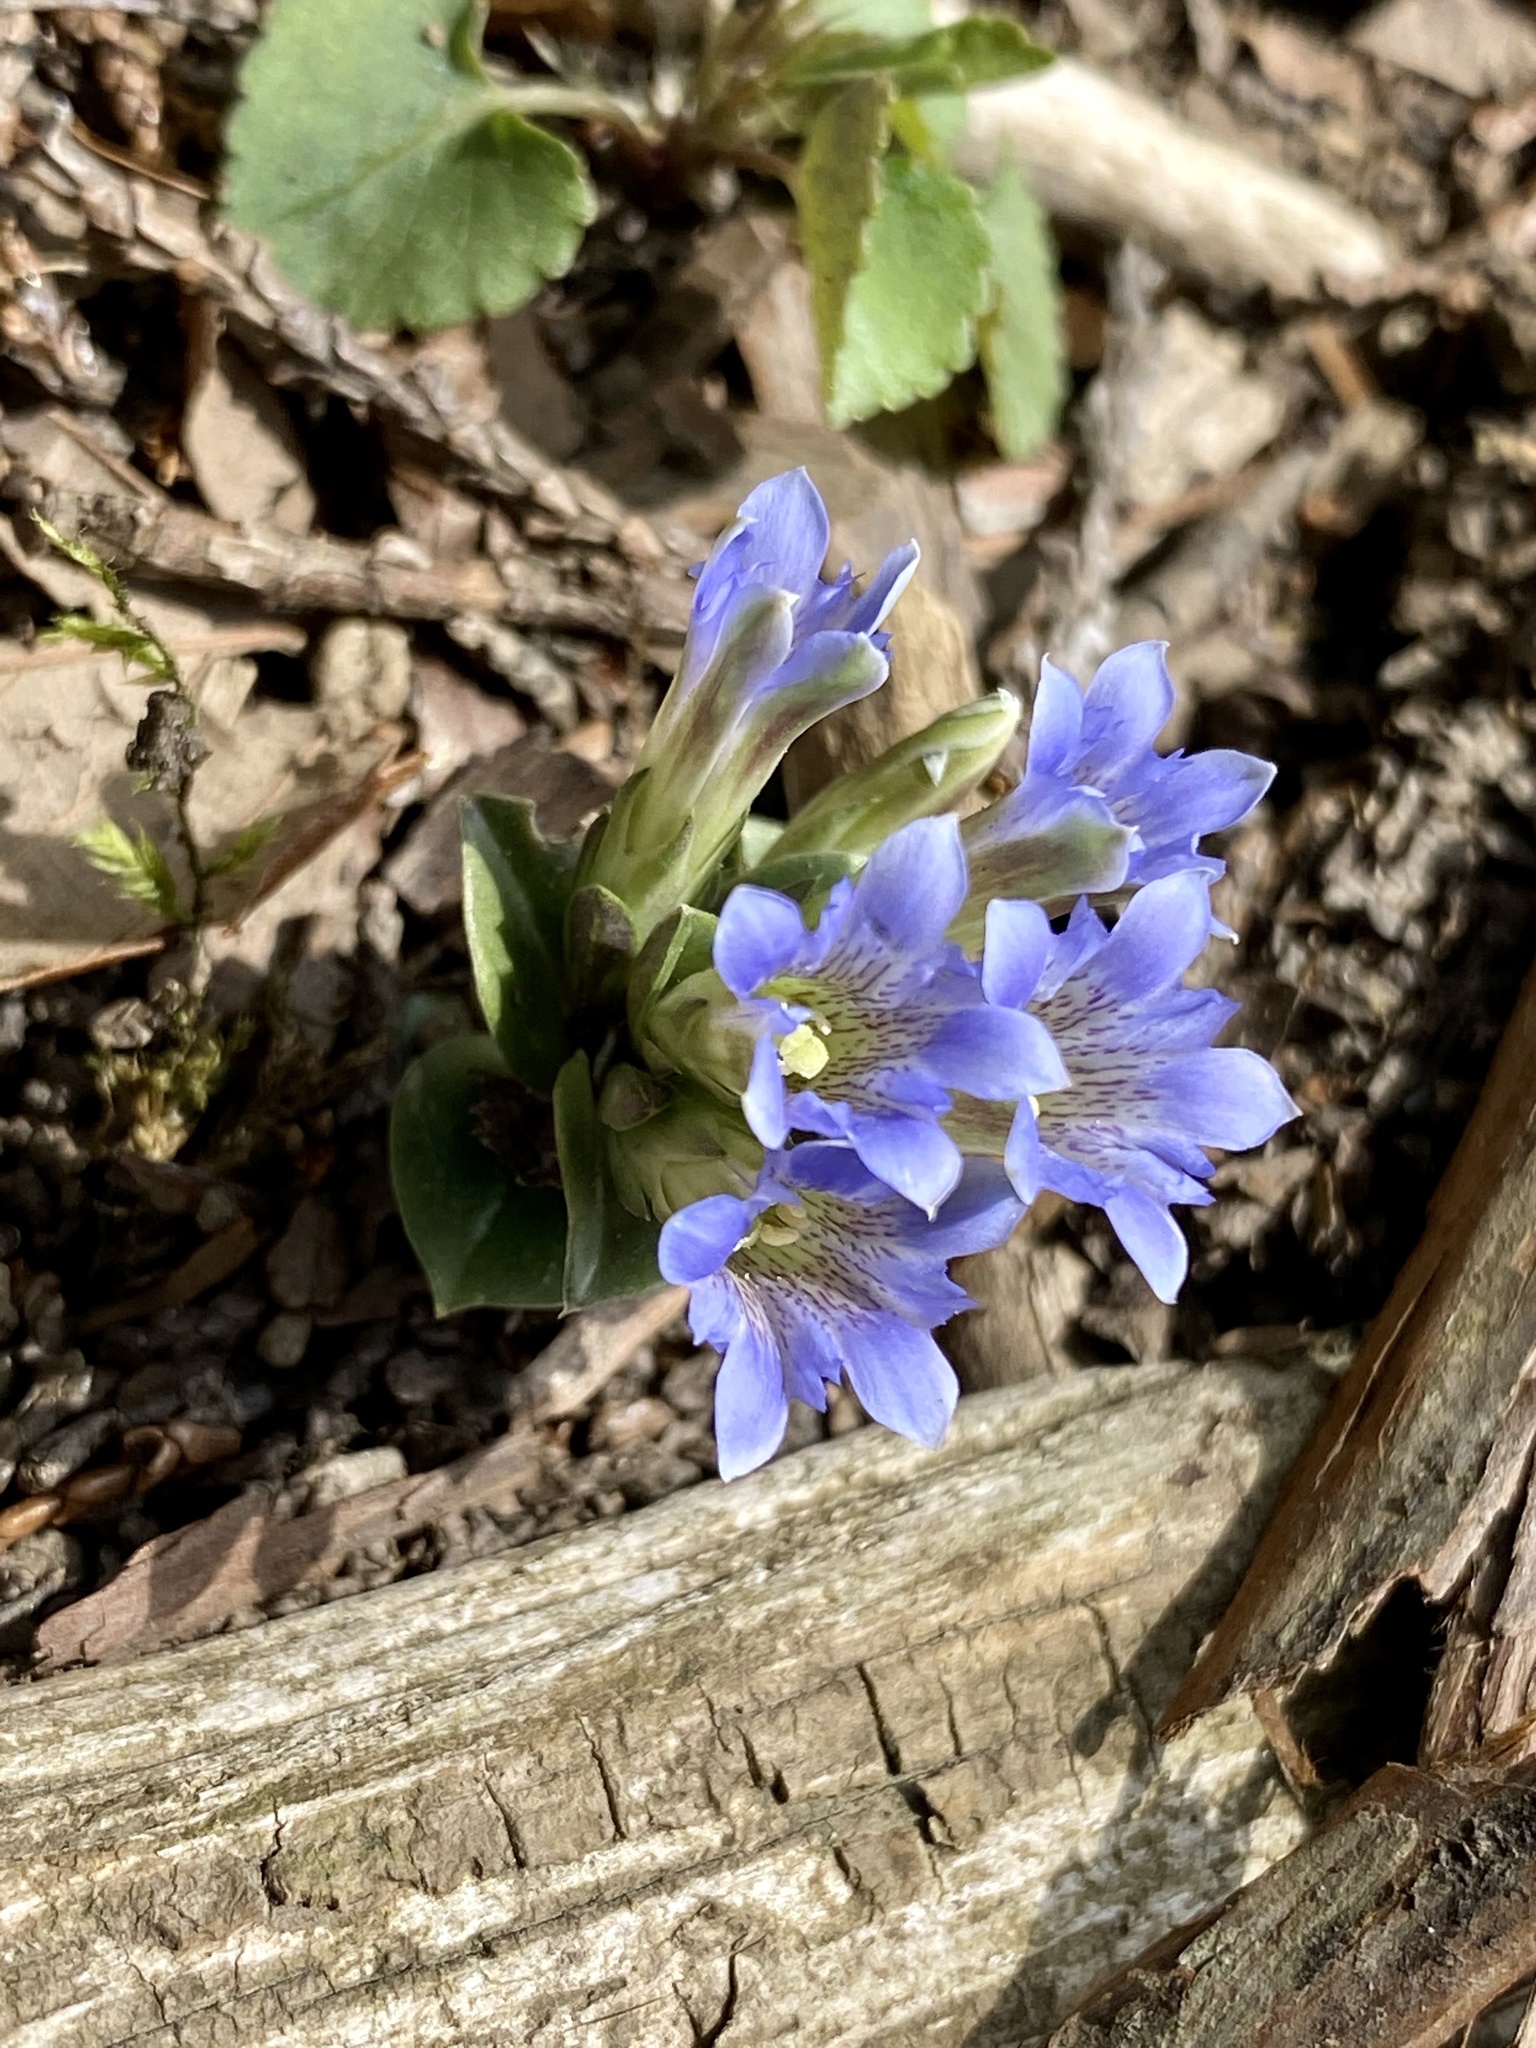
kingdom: Plantae
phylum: Tracheophyta
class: Magnoliopsida
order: Gentianales
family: Gentianaceae
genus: Gentiana
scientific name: Gentiana zollingeri
